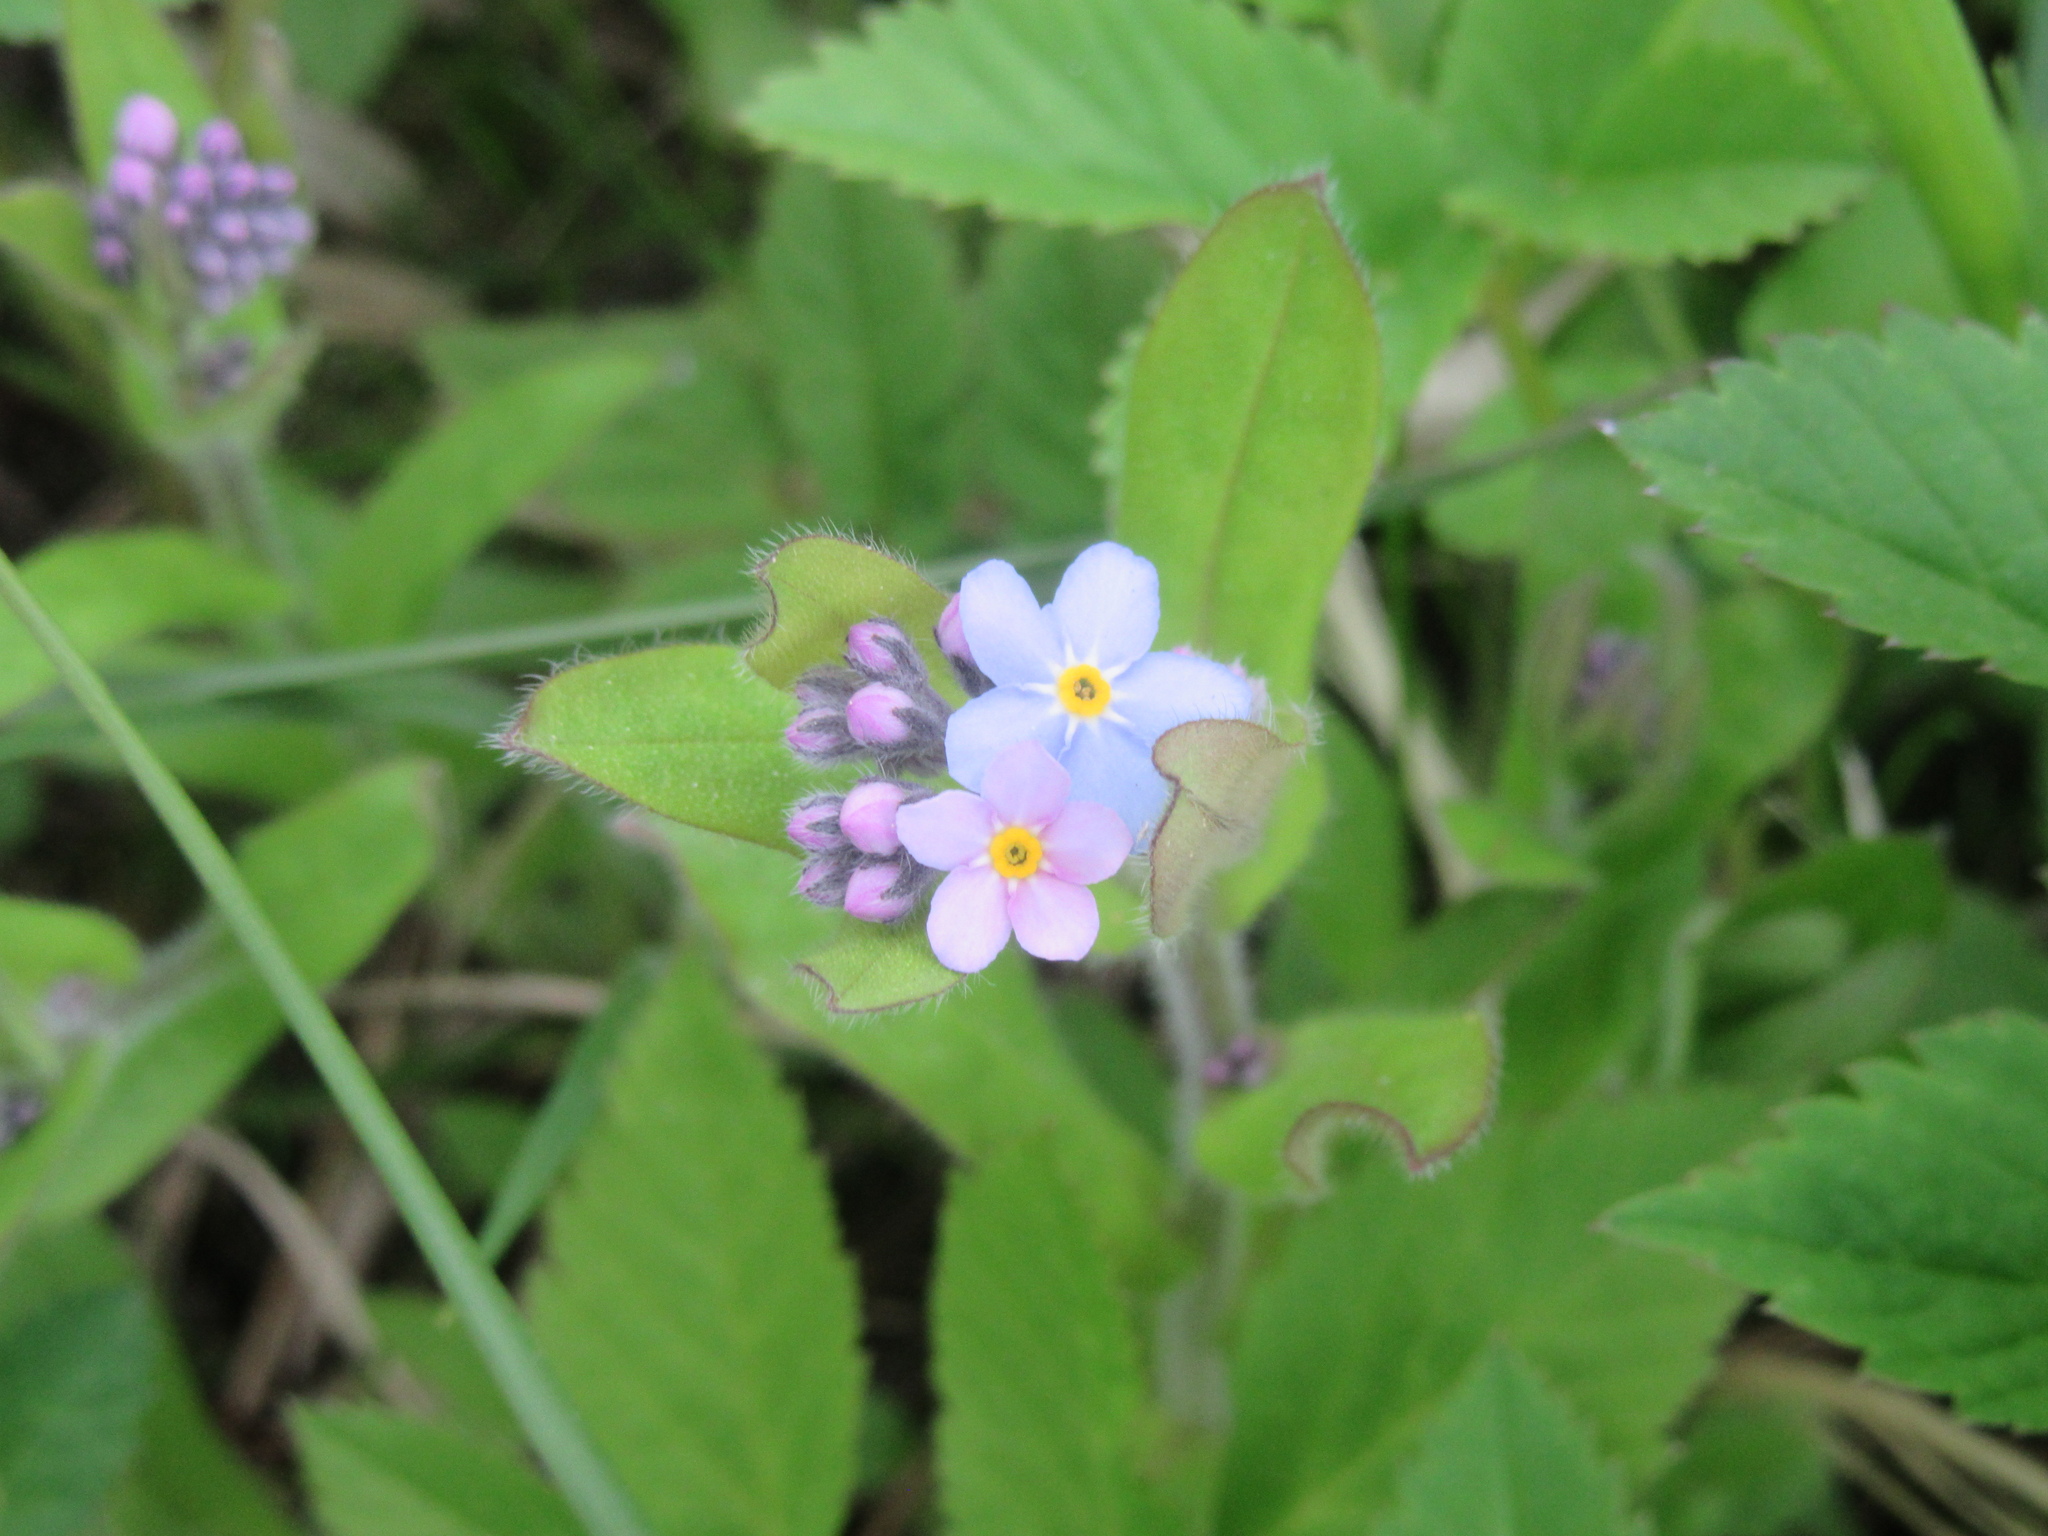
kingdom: Plantae
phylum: Tracheophyta
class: Magnoliopsida
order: Boraginales
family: Boraginaceae
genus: Myosotis
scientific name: Myosotis sylvatica
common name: Wood forget-me-not
